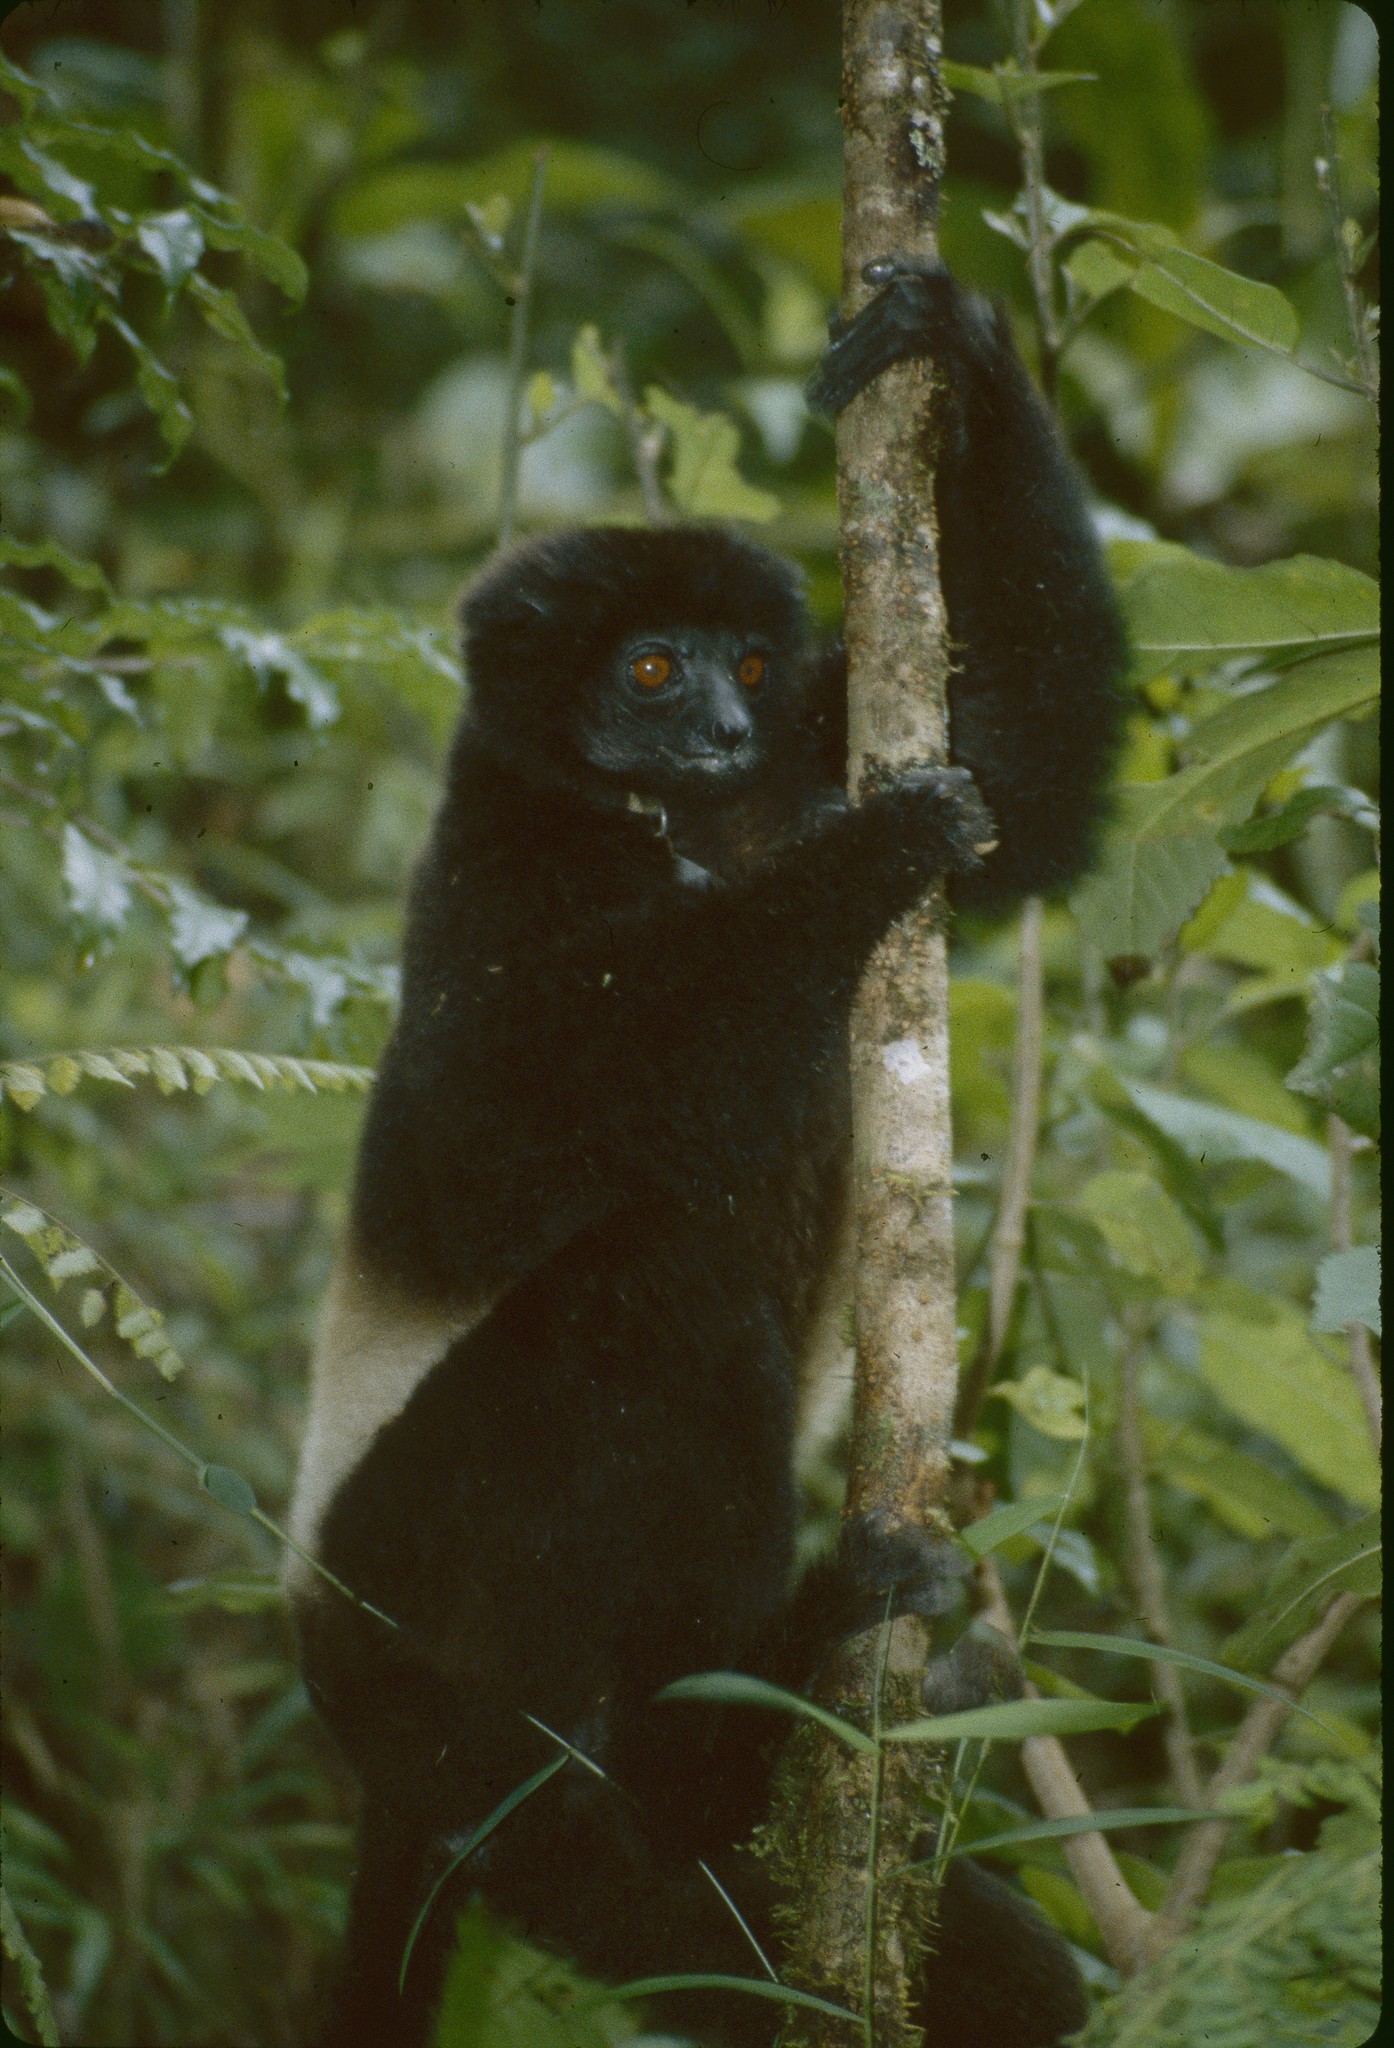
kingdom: Animalia
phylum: Chordata
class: Mammalia
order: Primates
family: Indriidae
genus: Propithecus
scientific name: Propithecus edwardsi
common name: Milne-edwards’s simpona
